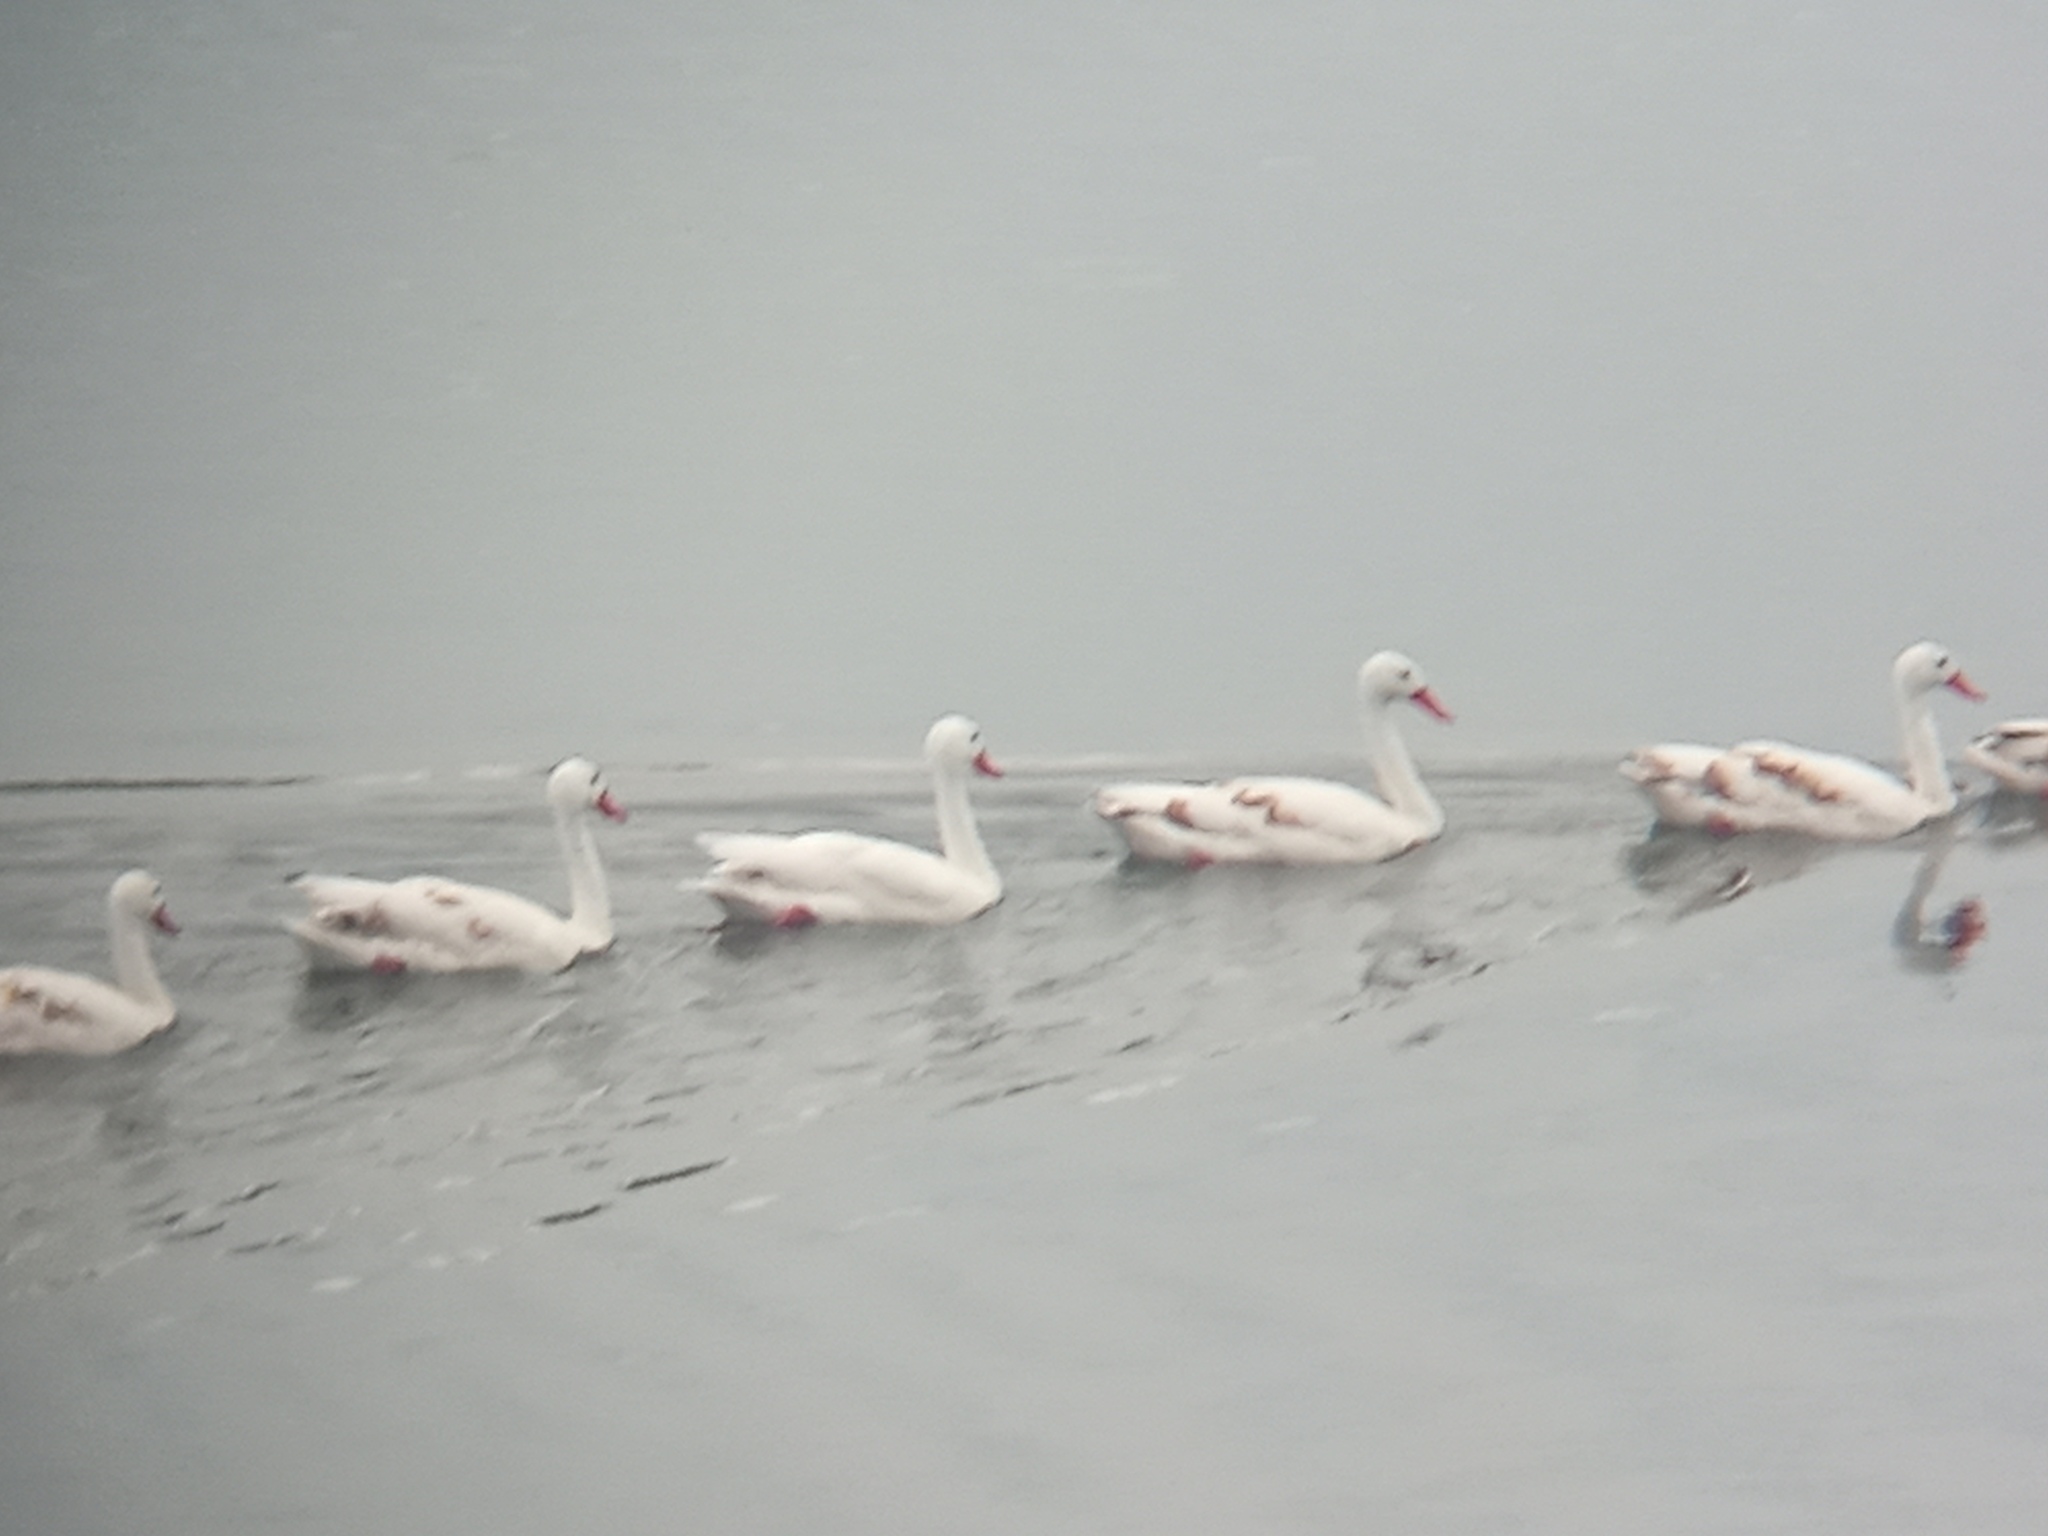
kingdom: Animalia
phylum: Chordata
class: Aves
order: Anseriformes
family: Anatidae
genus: Coscoroba
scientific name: Coscoroba coscoroba
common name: Coscoroba swan
